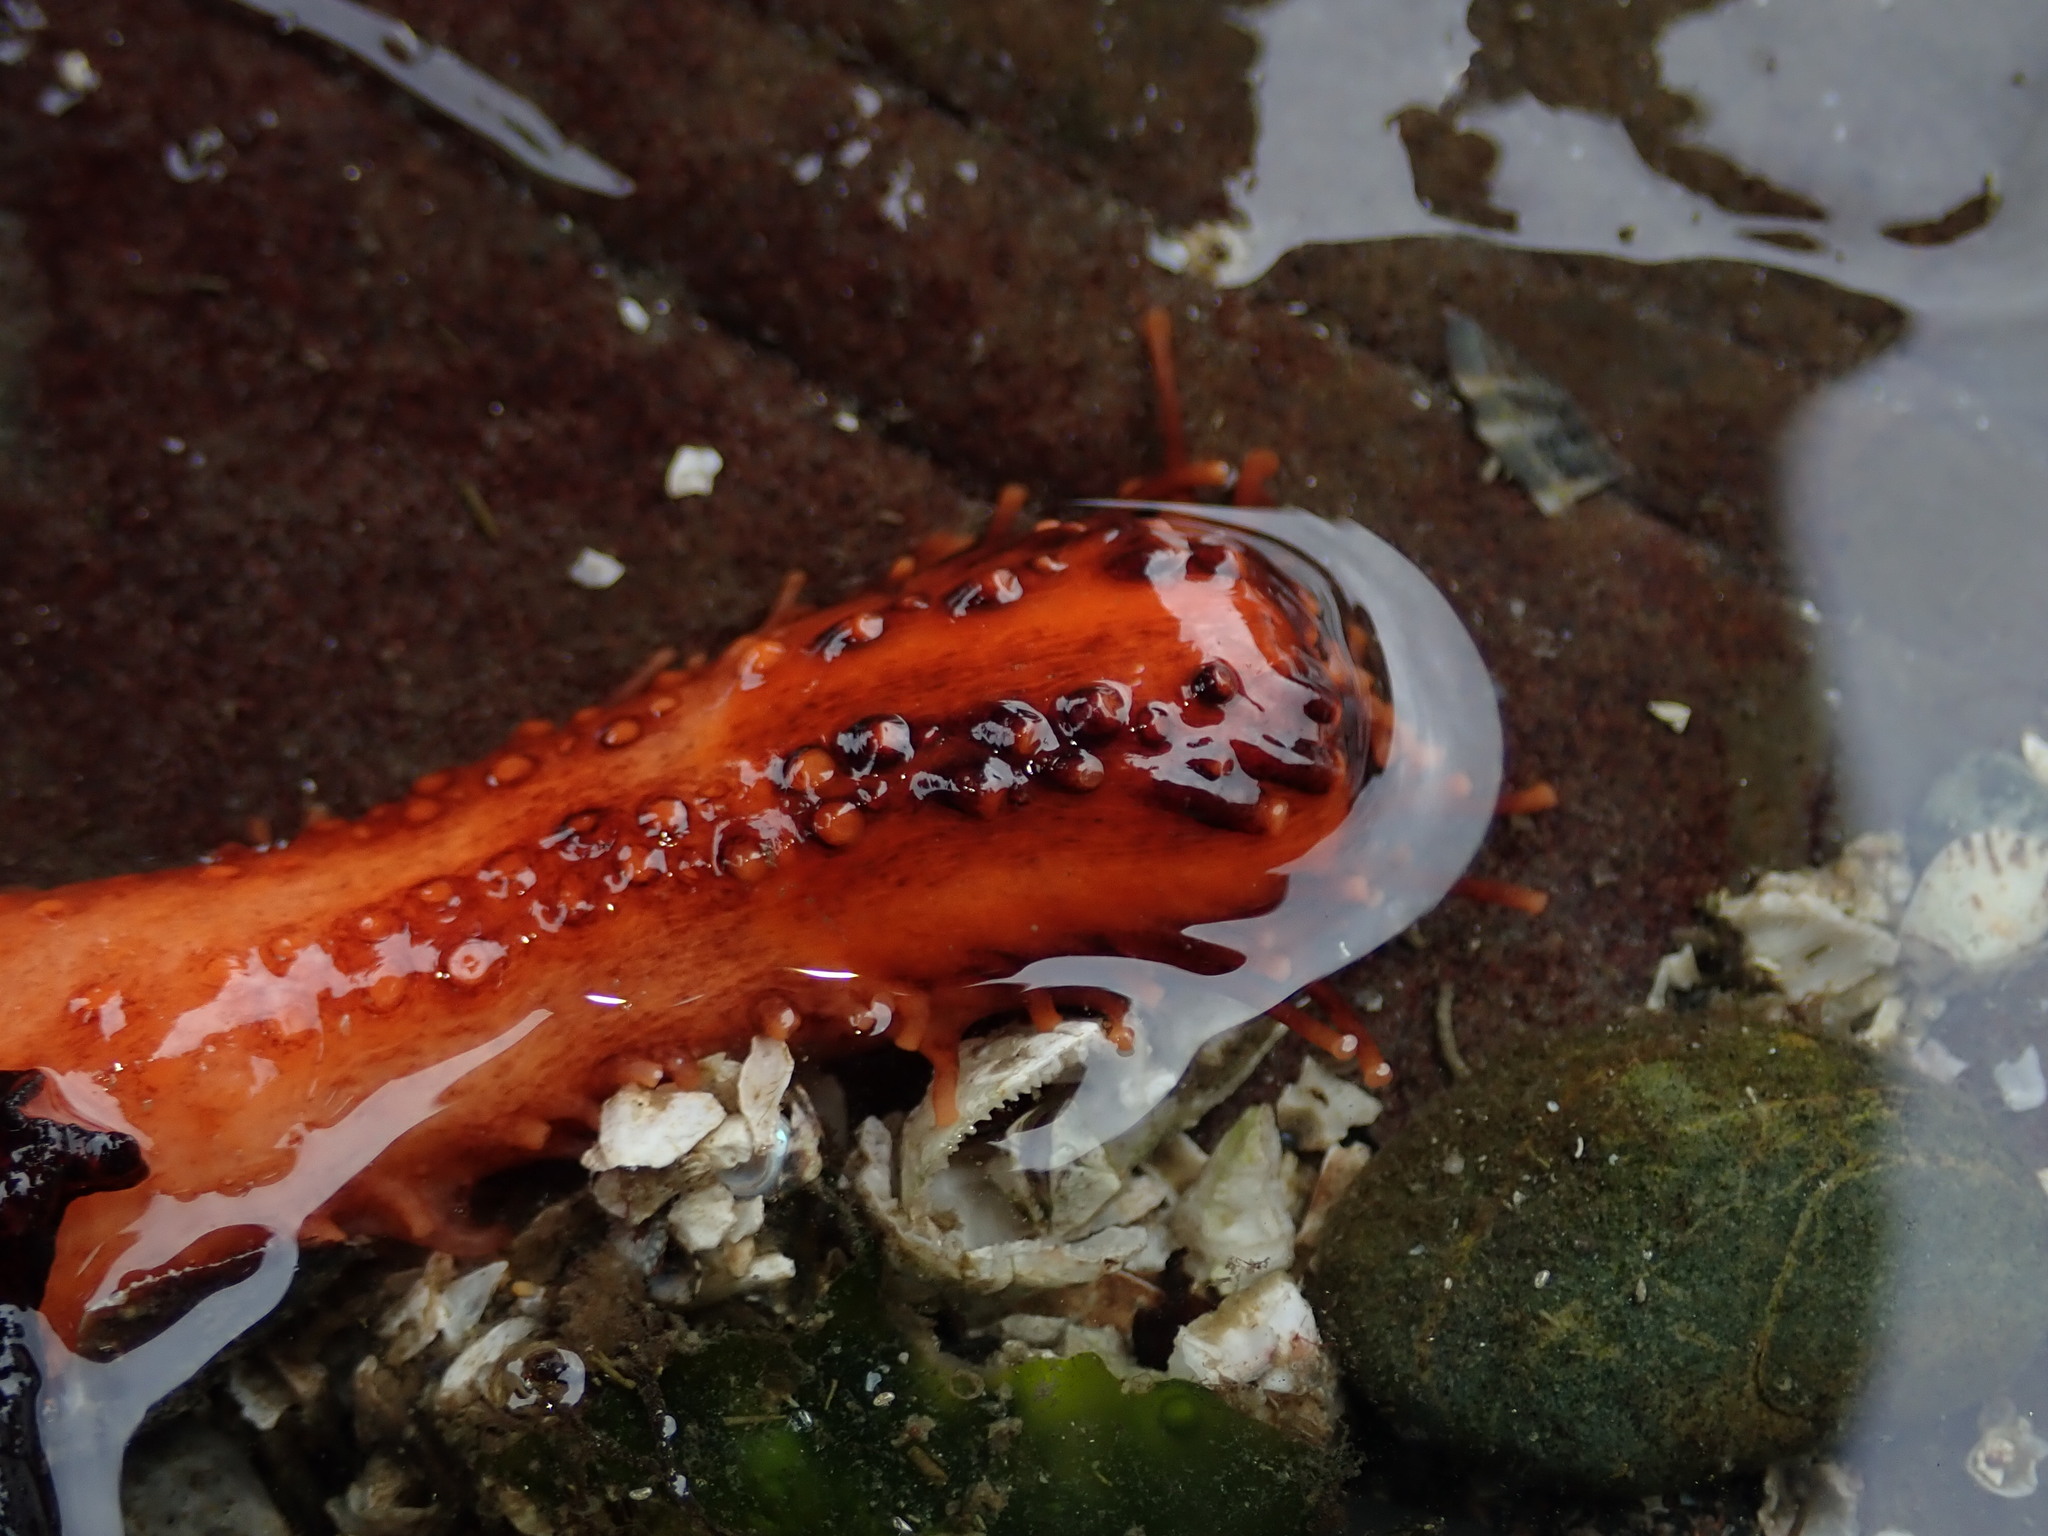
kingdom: Animalia
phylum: Echinodermata
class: Holothuroidea
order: Dendrochirotida
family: Cucumariidae
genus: Cucumaria
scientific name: Cucumaria miniata
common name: Orange sea cucumber
